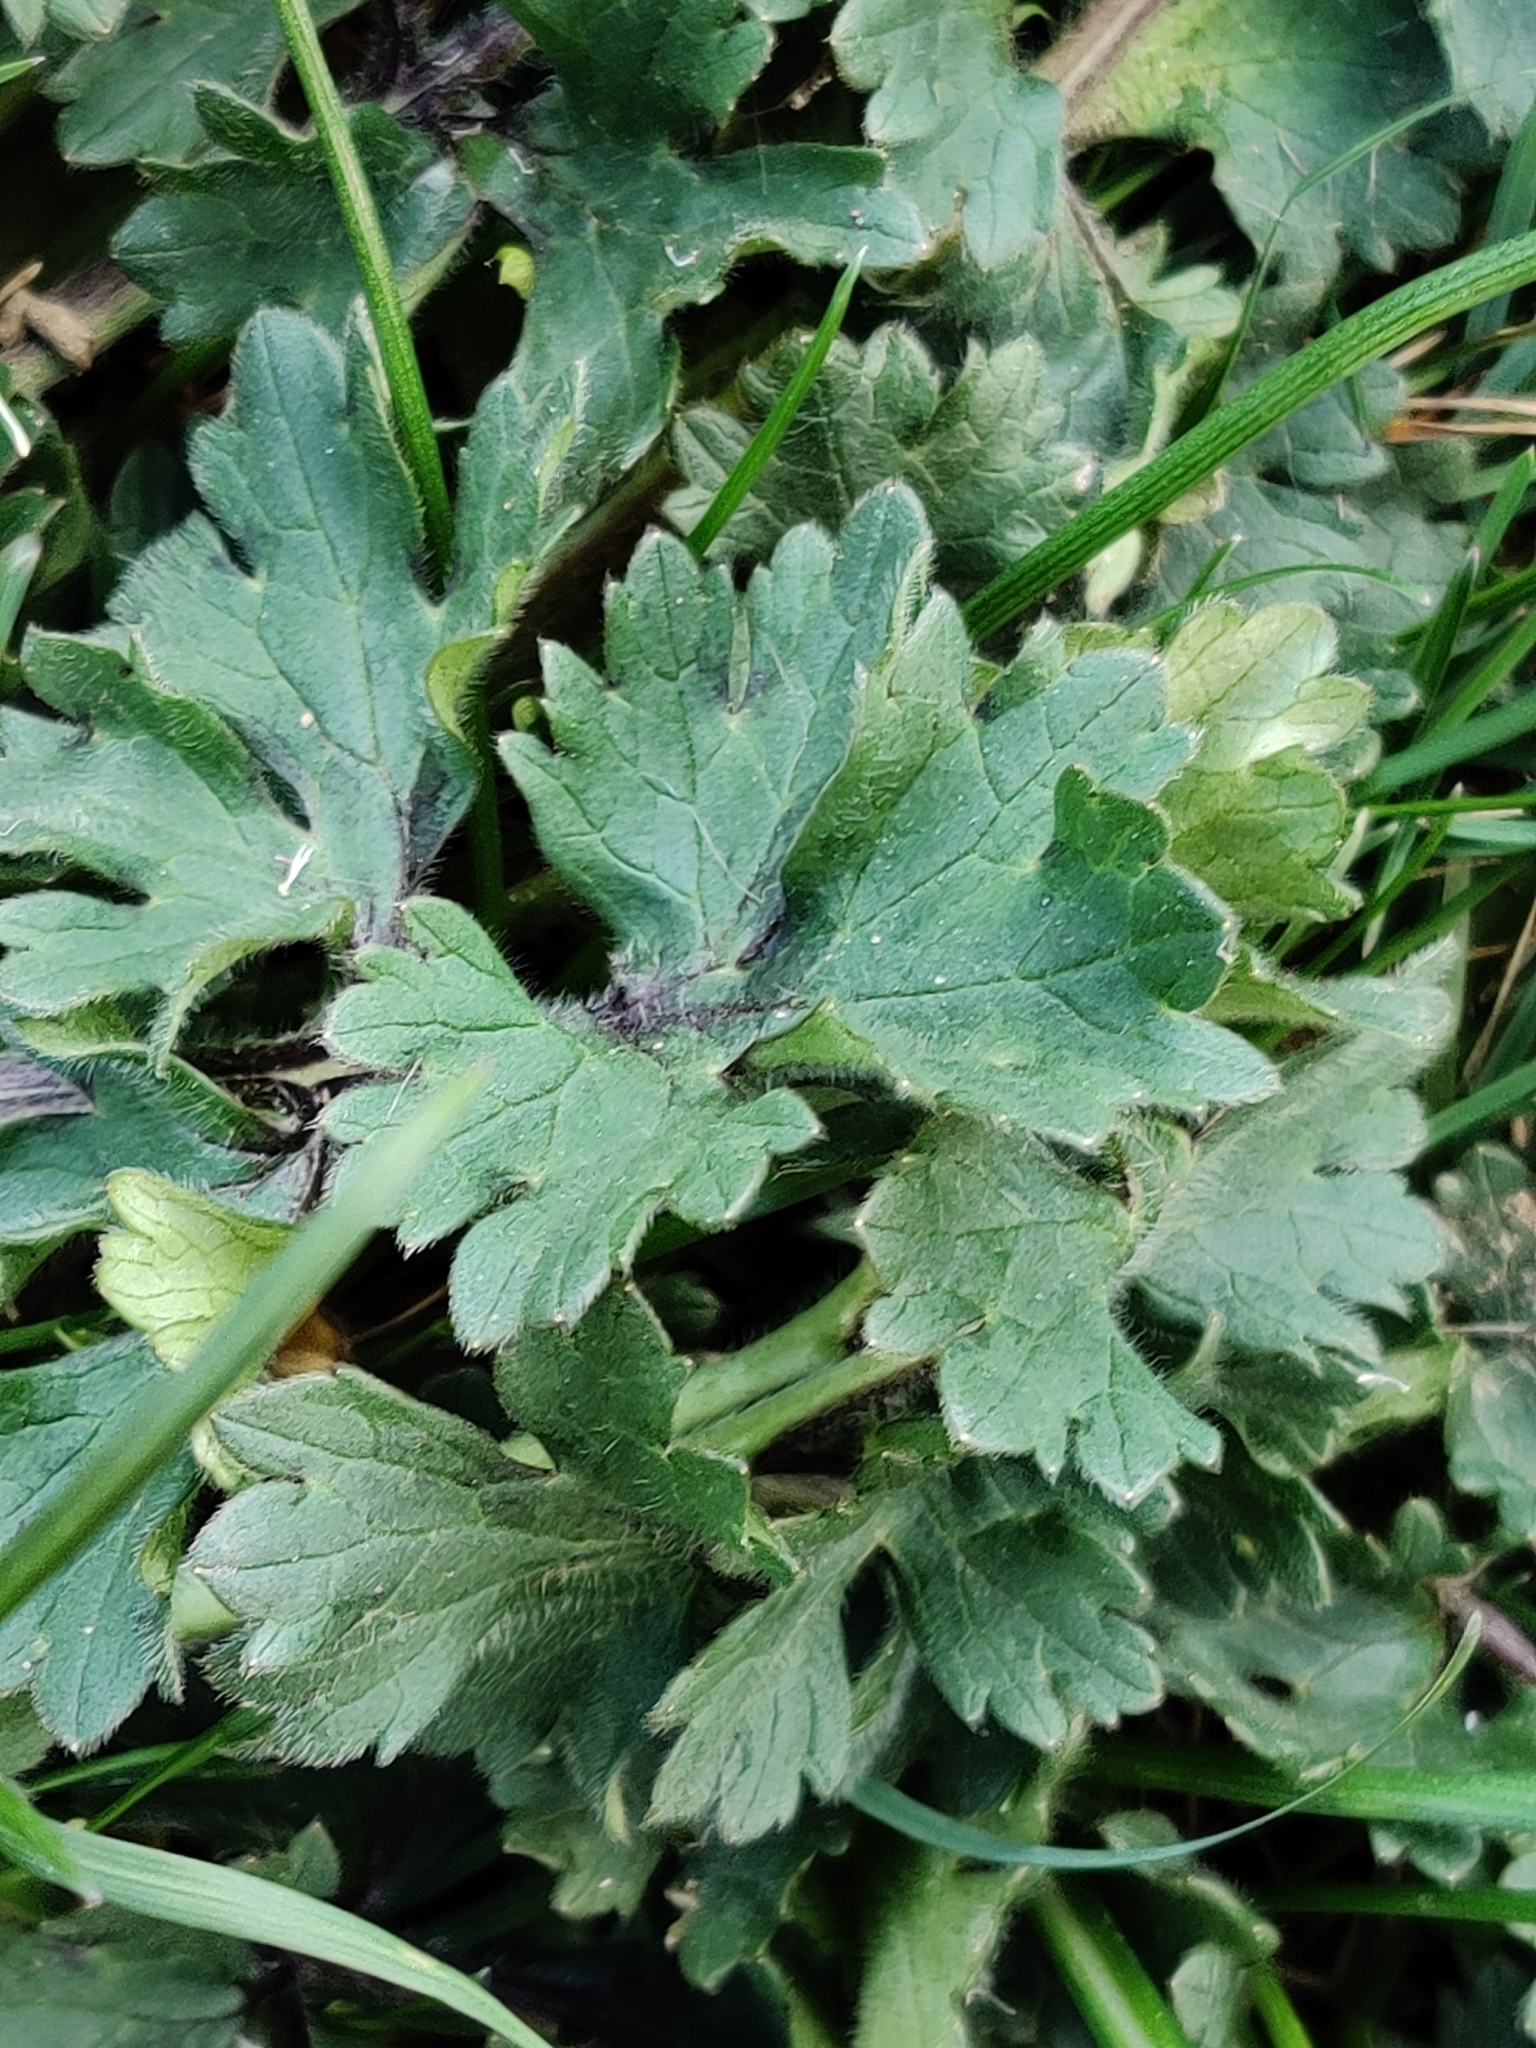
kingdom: Plantae
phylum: Tracheophyta
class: Magnoliopsida
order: Ranunculales
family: Ranunculaceae
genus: Ranunculus
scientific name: Ranunculus bulbosus
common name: Bulbous buttercup
